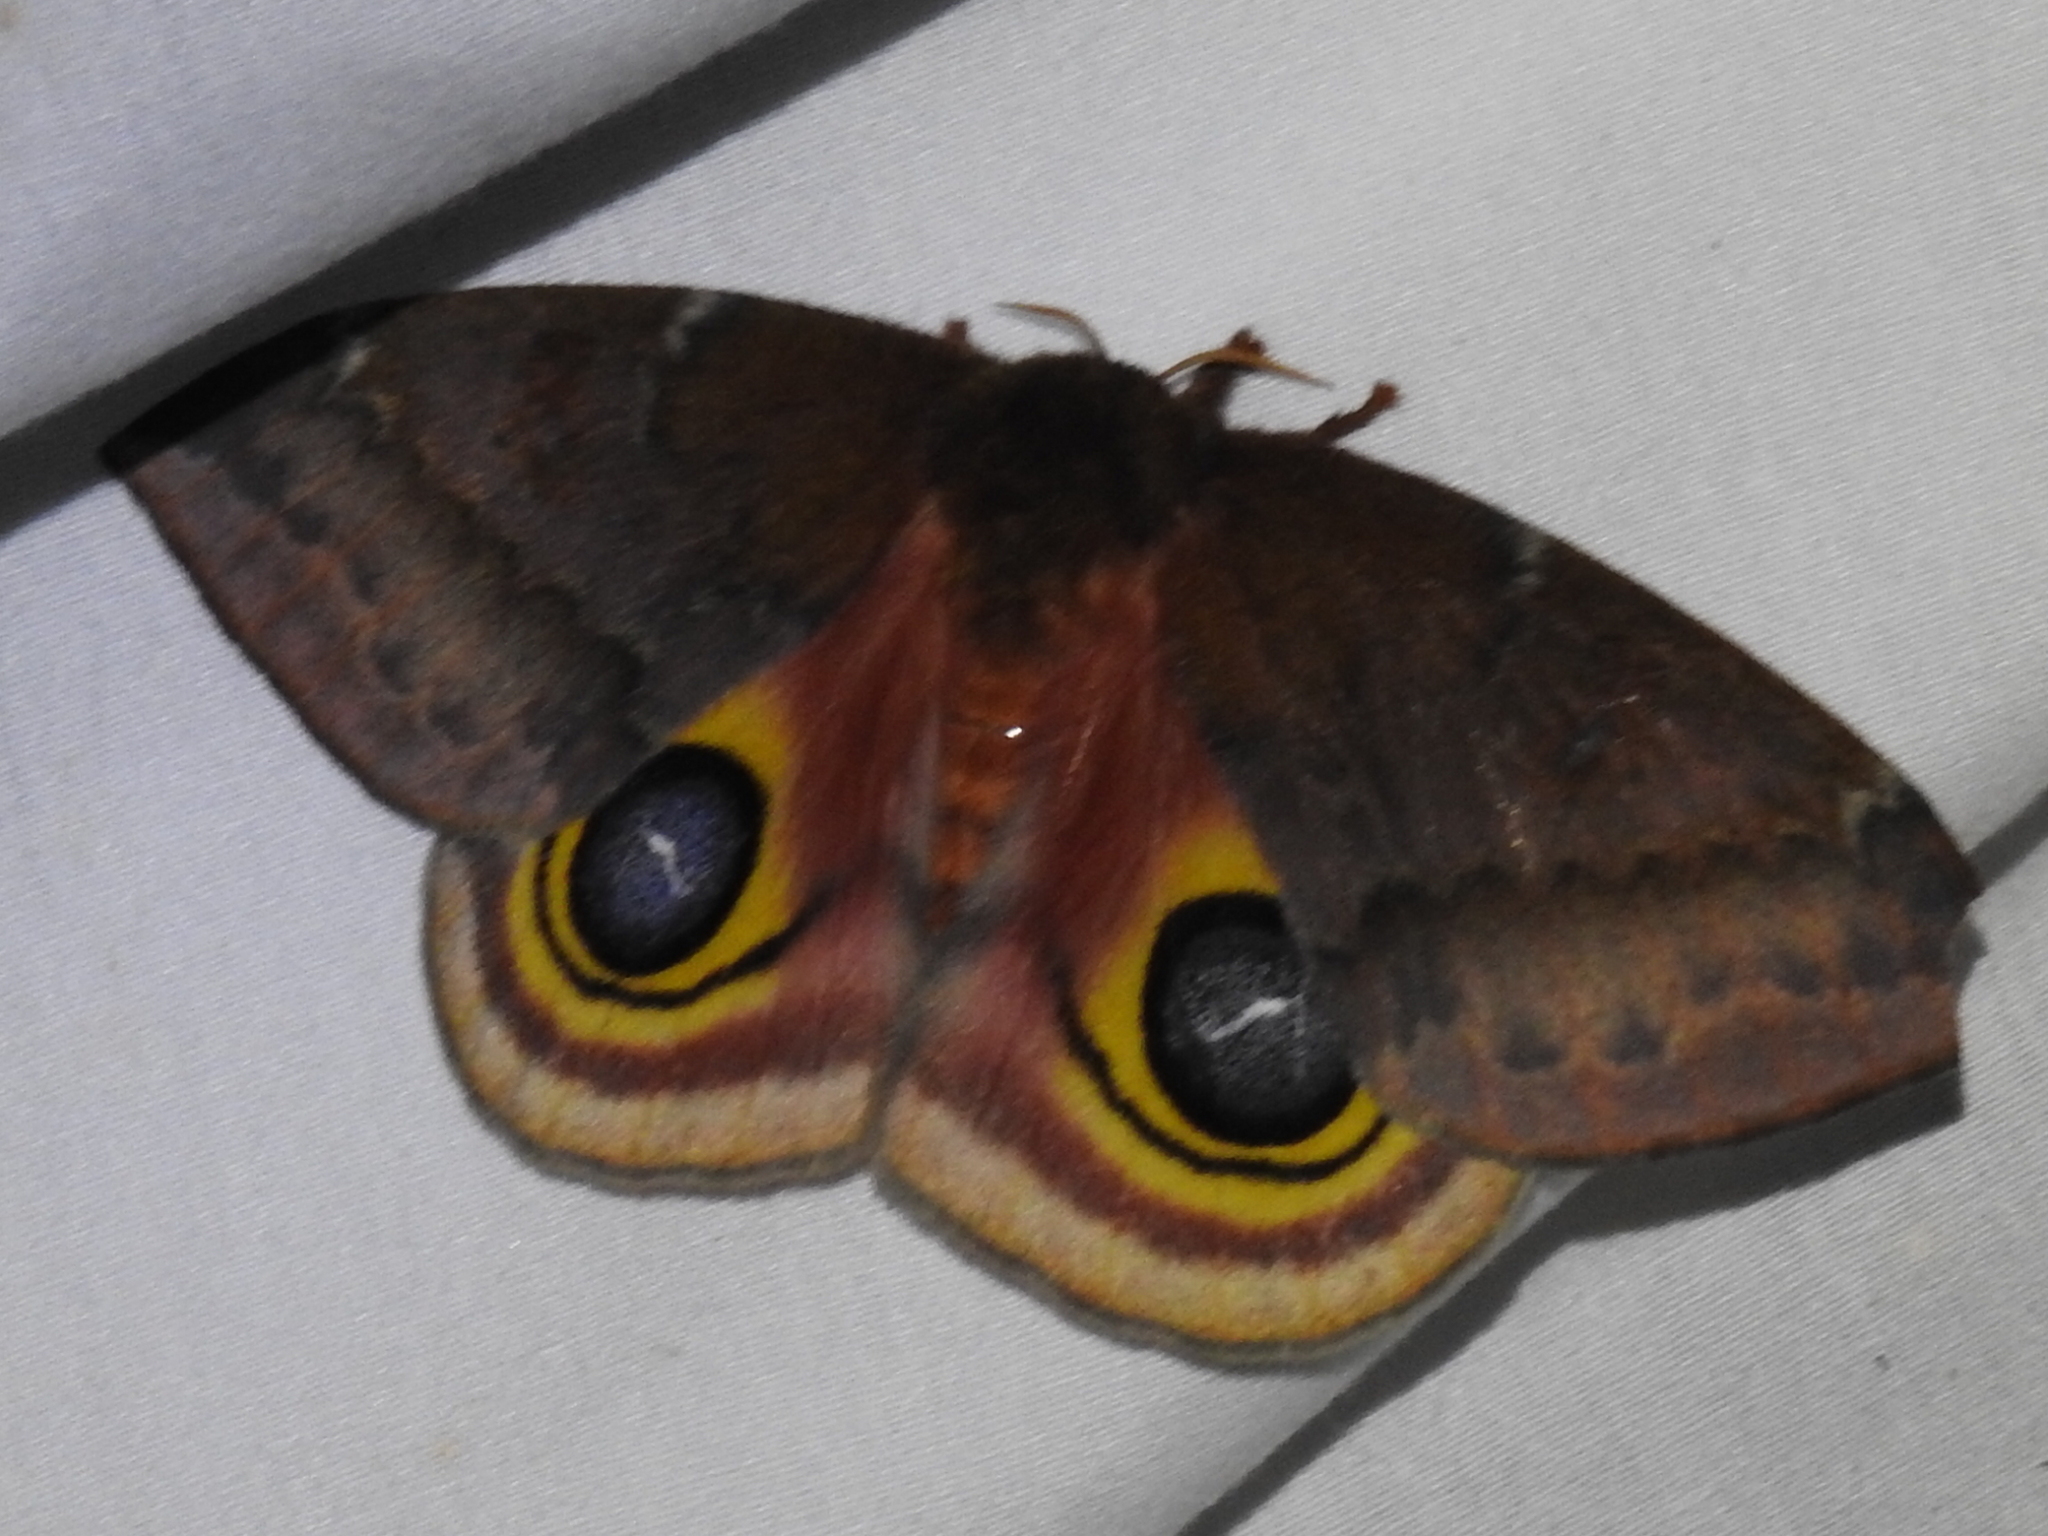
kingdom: Animalia
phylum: Arthropoda
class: Insecta
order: Lepidoptera
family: Saturniidae
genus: Automeris
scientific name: Automeris io
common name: Io moth
